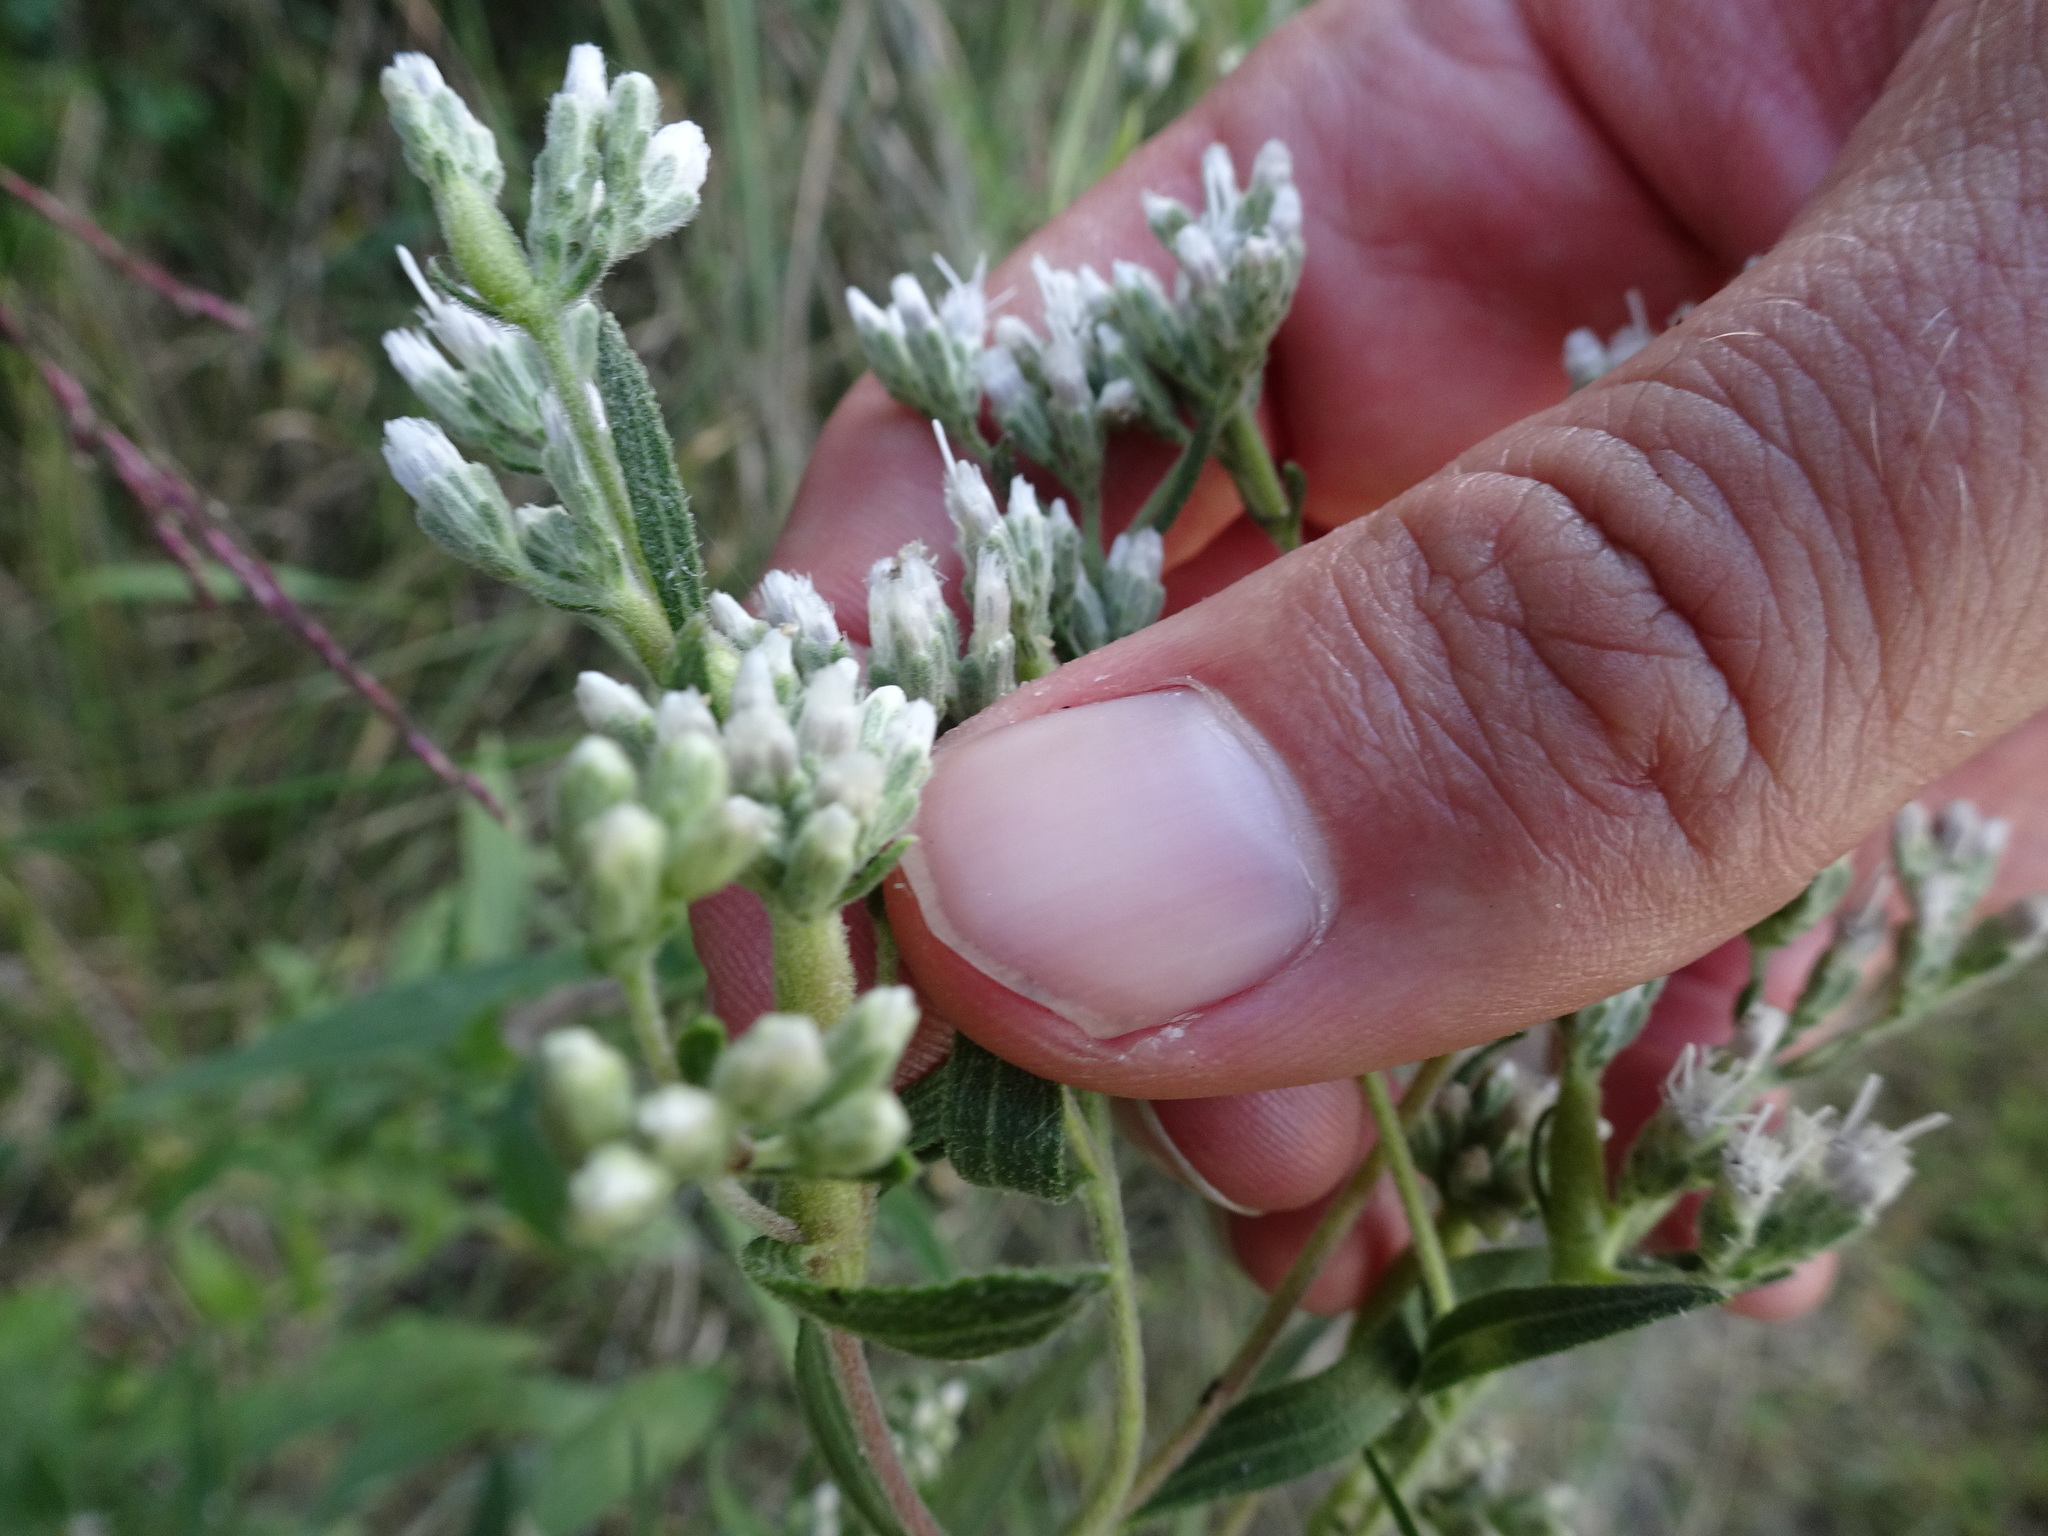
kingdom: Plantae
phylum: Tracheophyta
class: Magnoliopsida
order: Asterales
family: Asteraceae
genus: Eupatorium
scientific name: Eupatorium altissimum
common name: Tall thoroughwort
